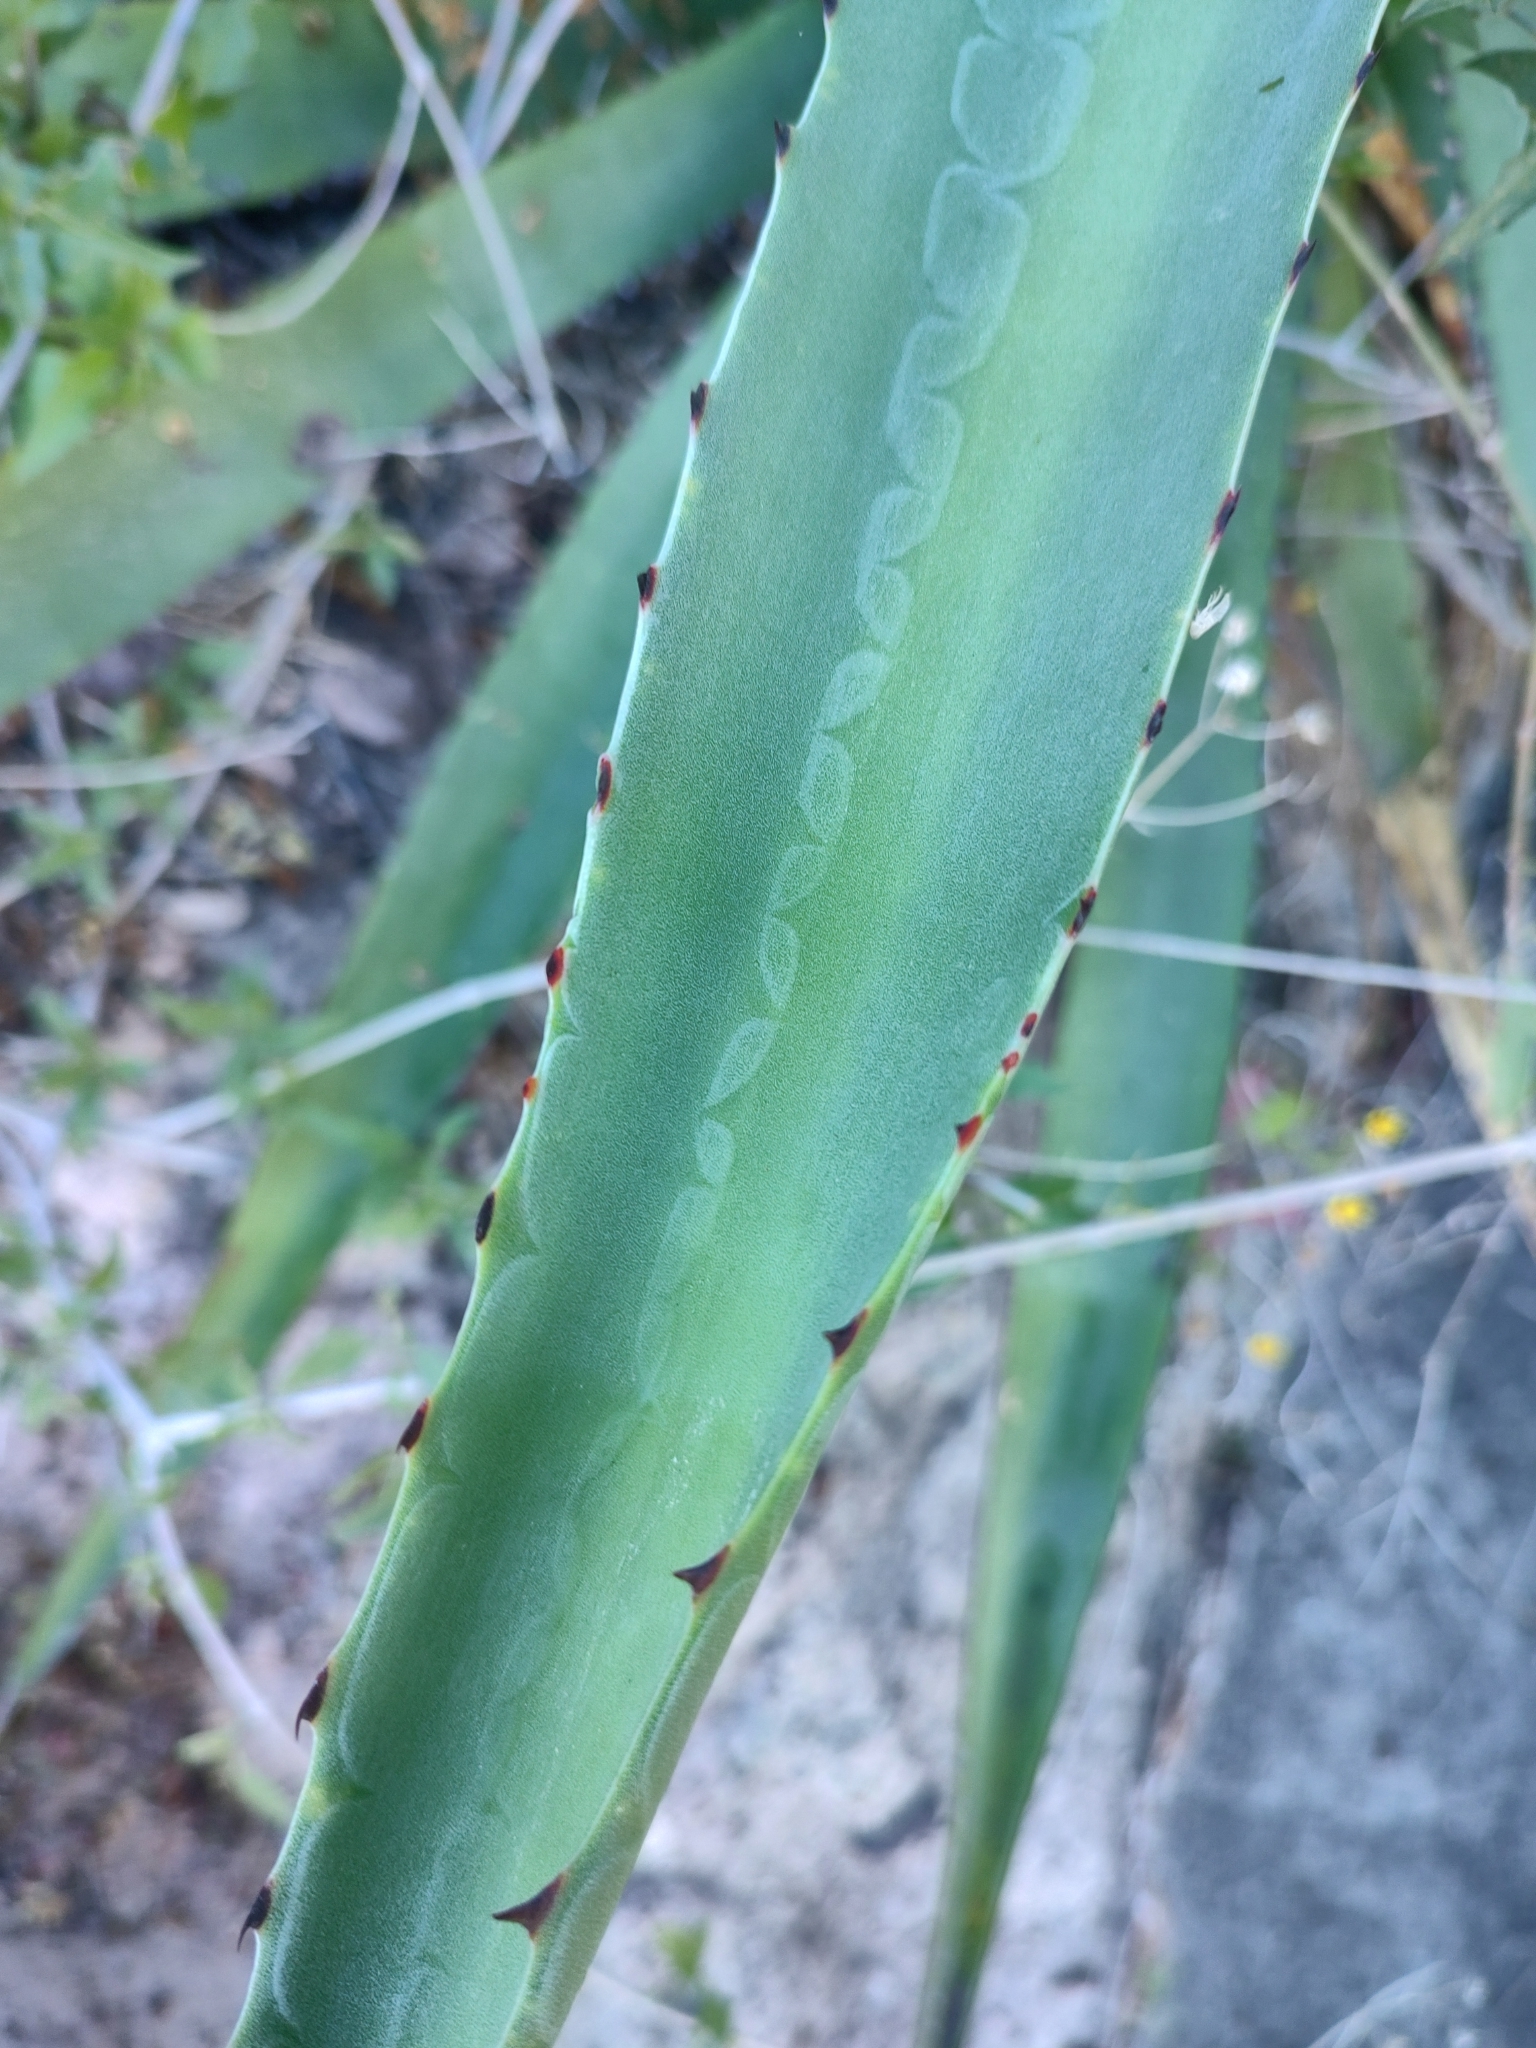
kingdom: Plantae
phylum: Tracheophyta
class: Liliopsida
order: Asparagales
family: Asparagaceae
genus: Agave
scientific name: Agave aurea
